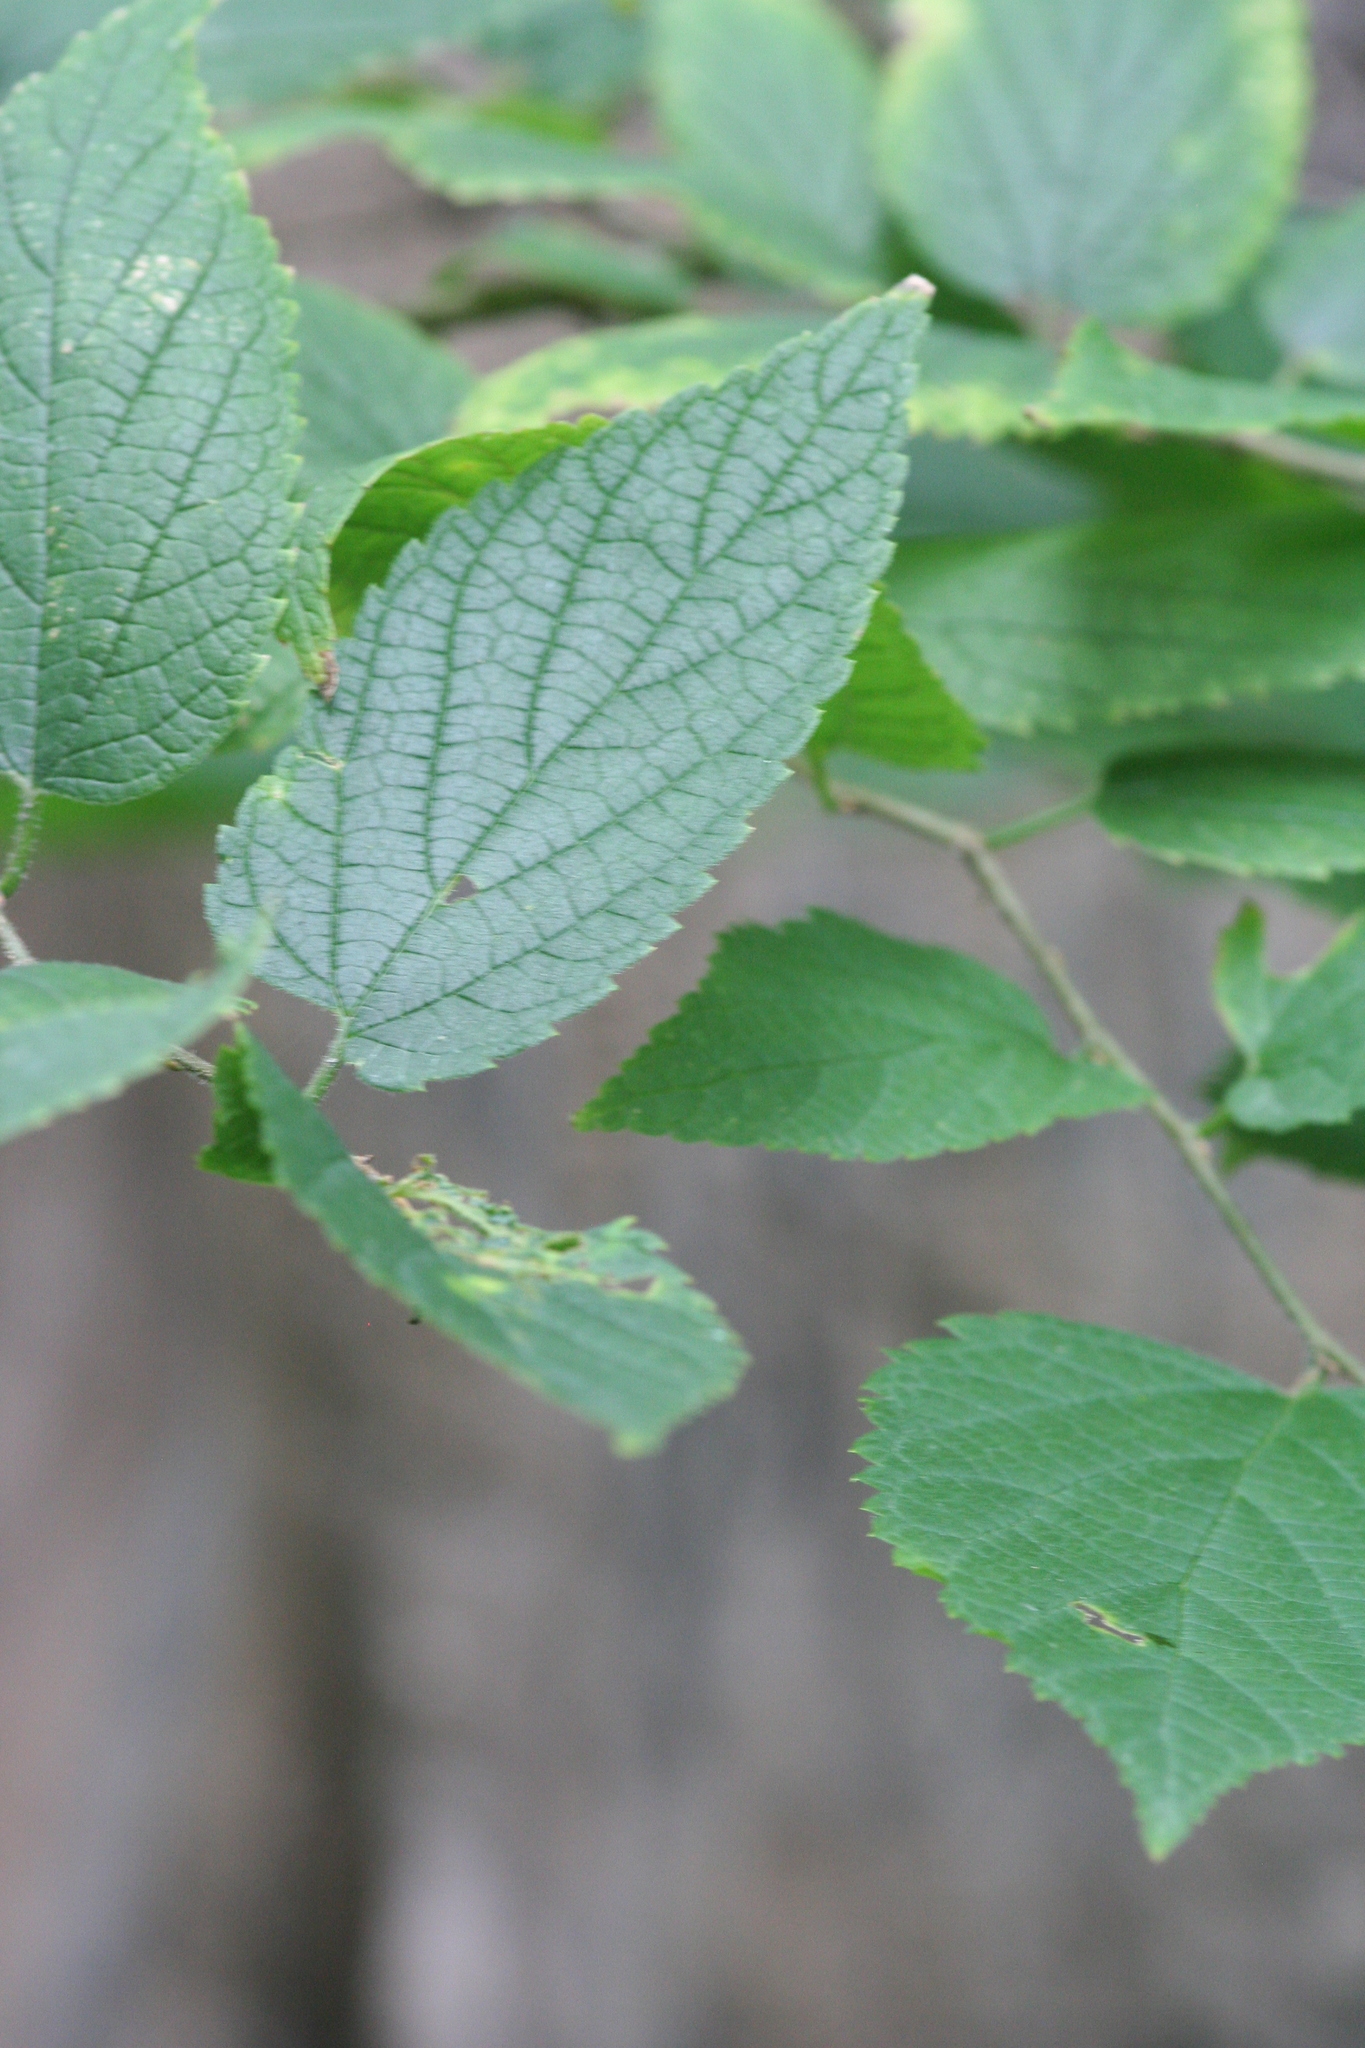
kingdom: Plantae
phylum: Tracheophyta
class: Magnoliopsida
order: Rosales
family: Cannabaceae
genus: Celtis
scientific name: Celtis occidentalis
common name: Common hackberry
